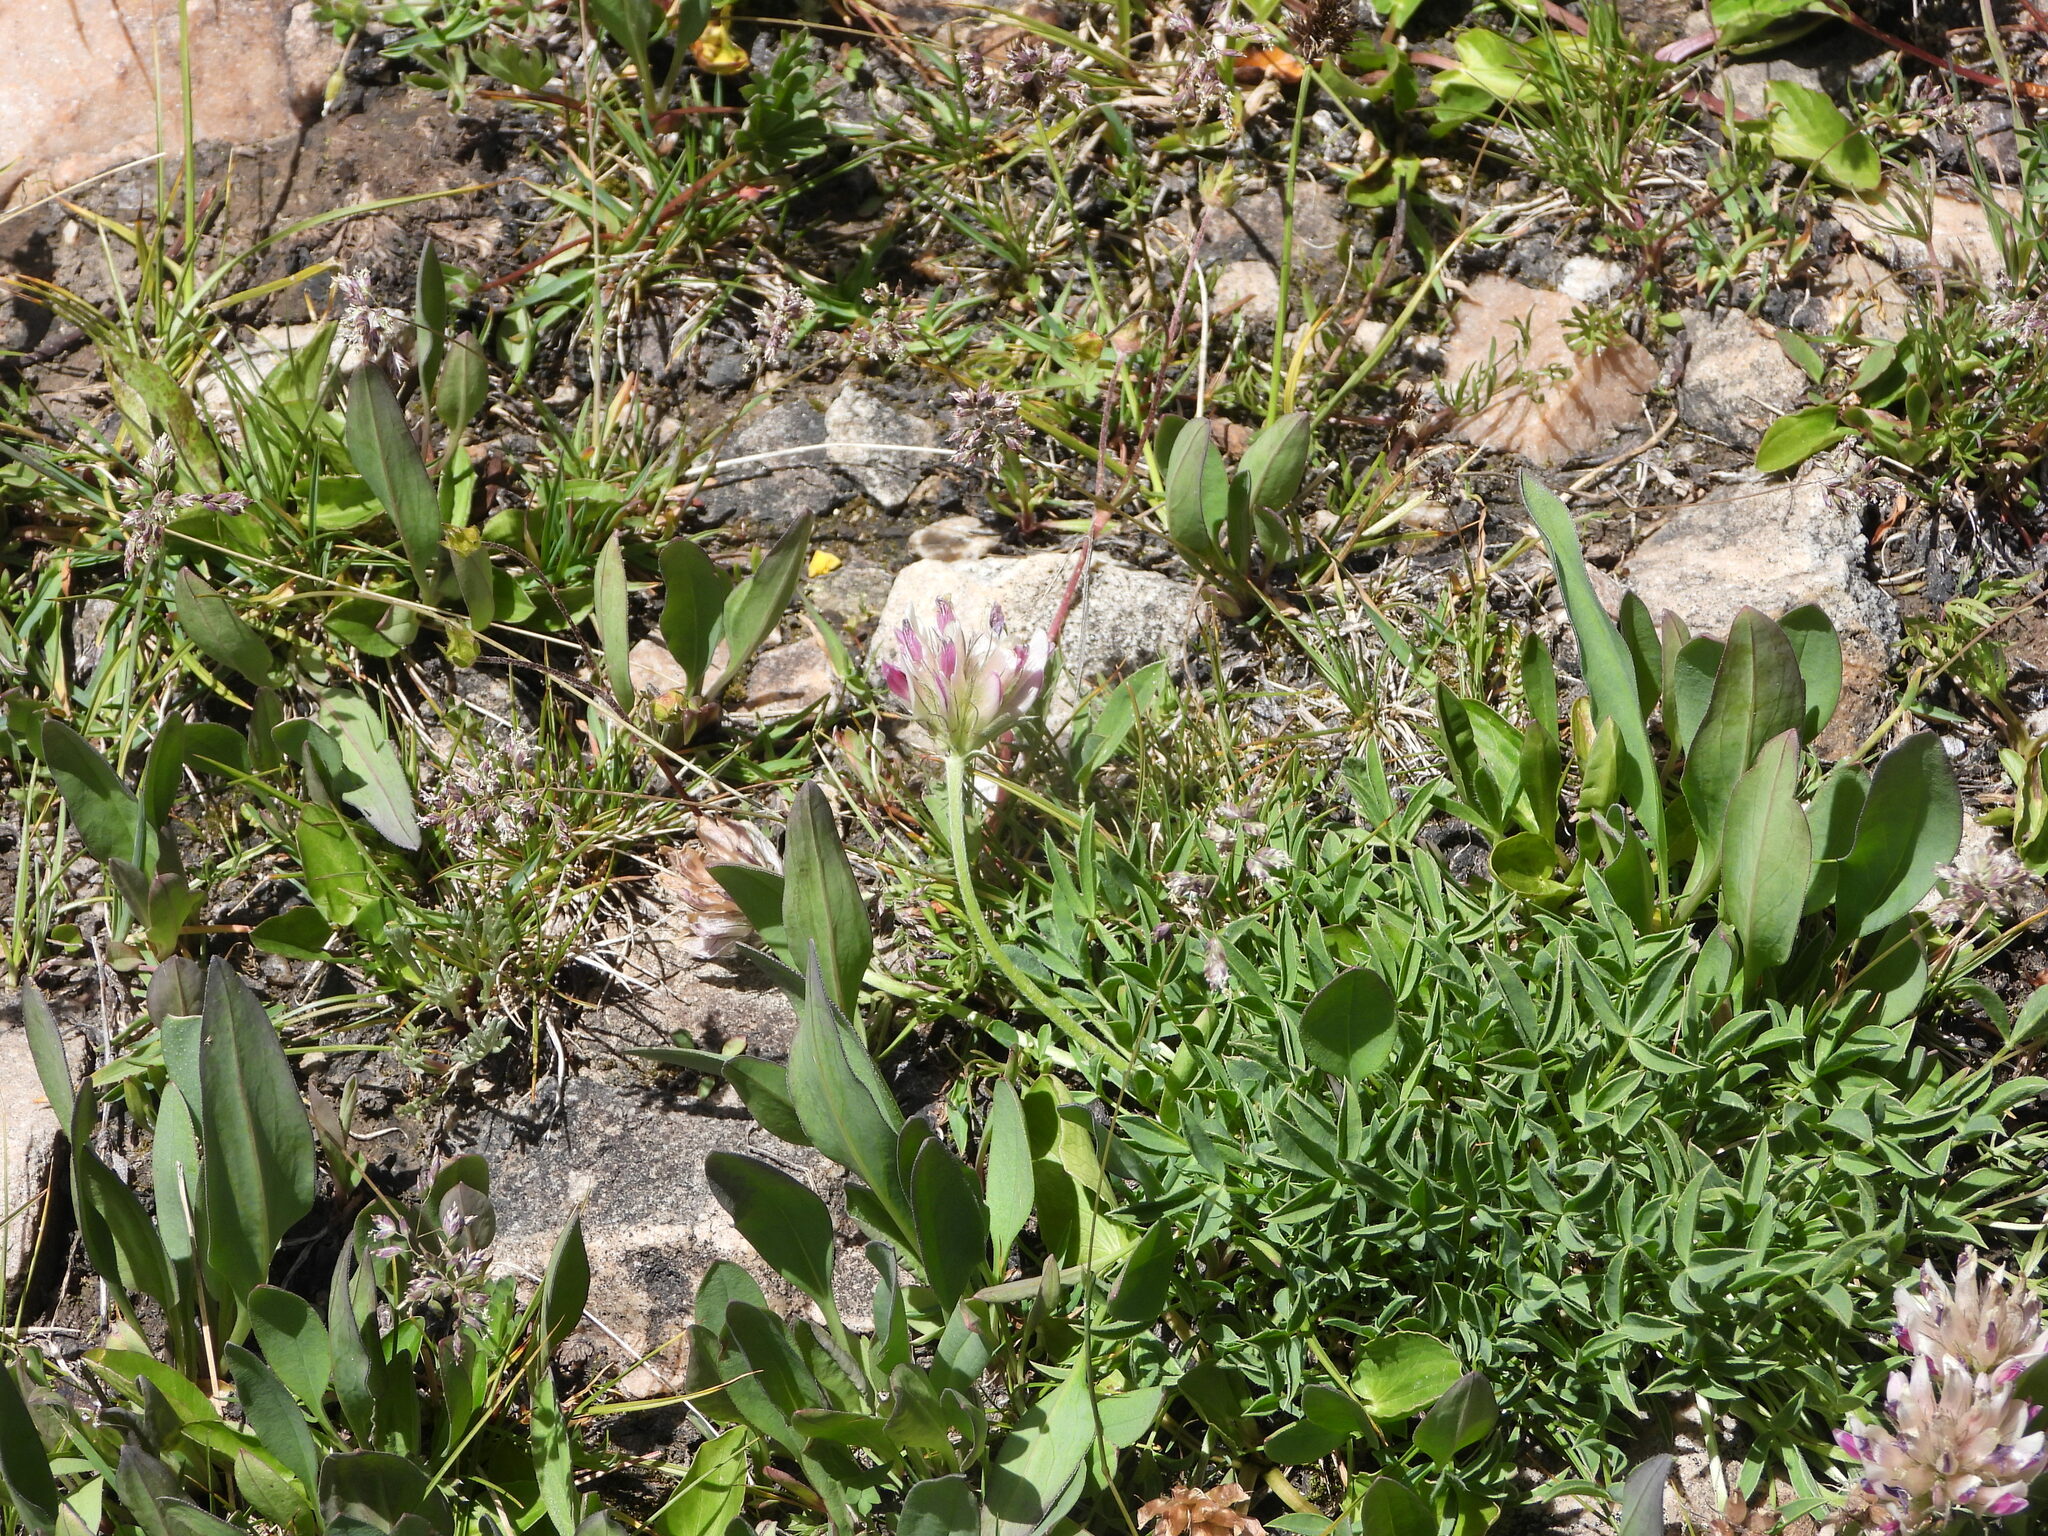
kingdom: Plantae
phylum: Tracheophyta
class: Magnoliopsida
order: Fabales
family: Fabaceae
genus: Trifolium
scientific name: Trifolium dasyphyllum
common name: Whip-root clover
